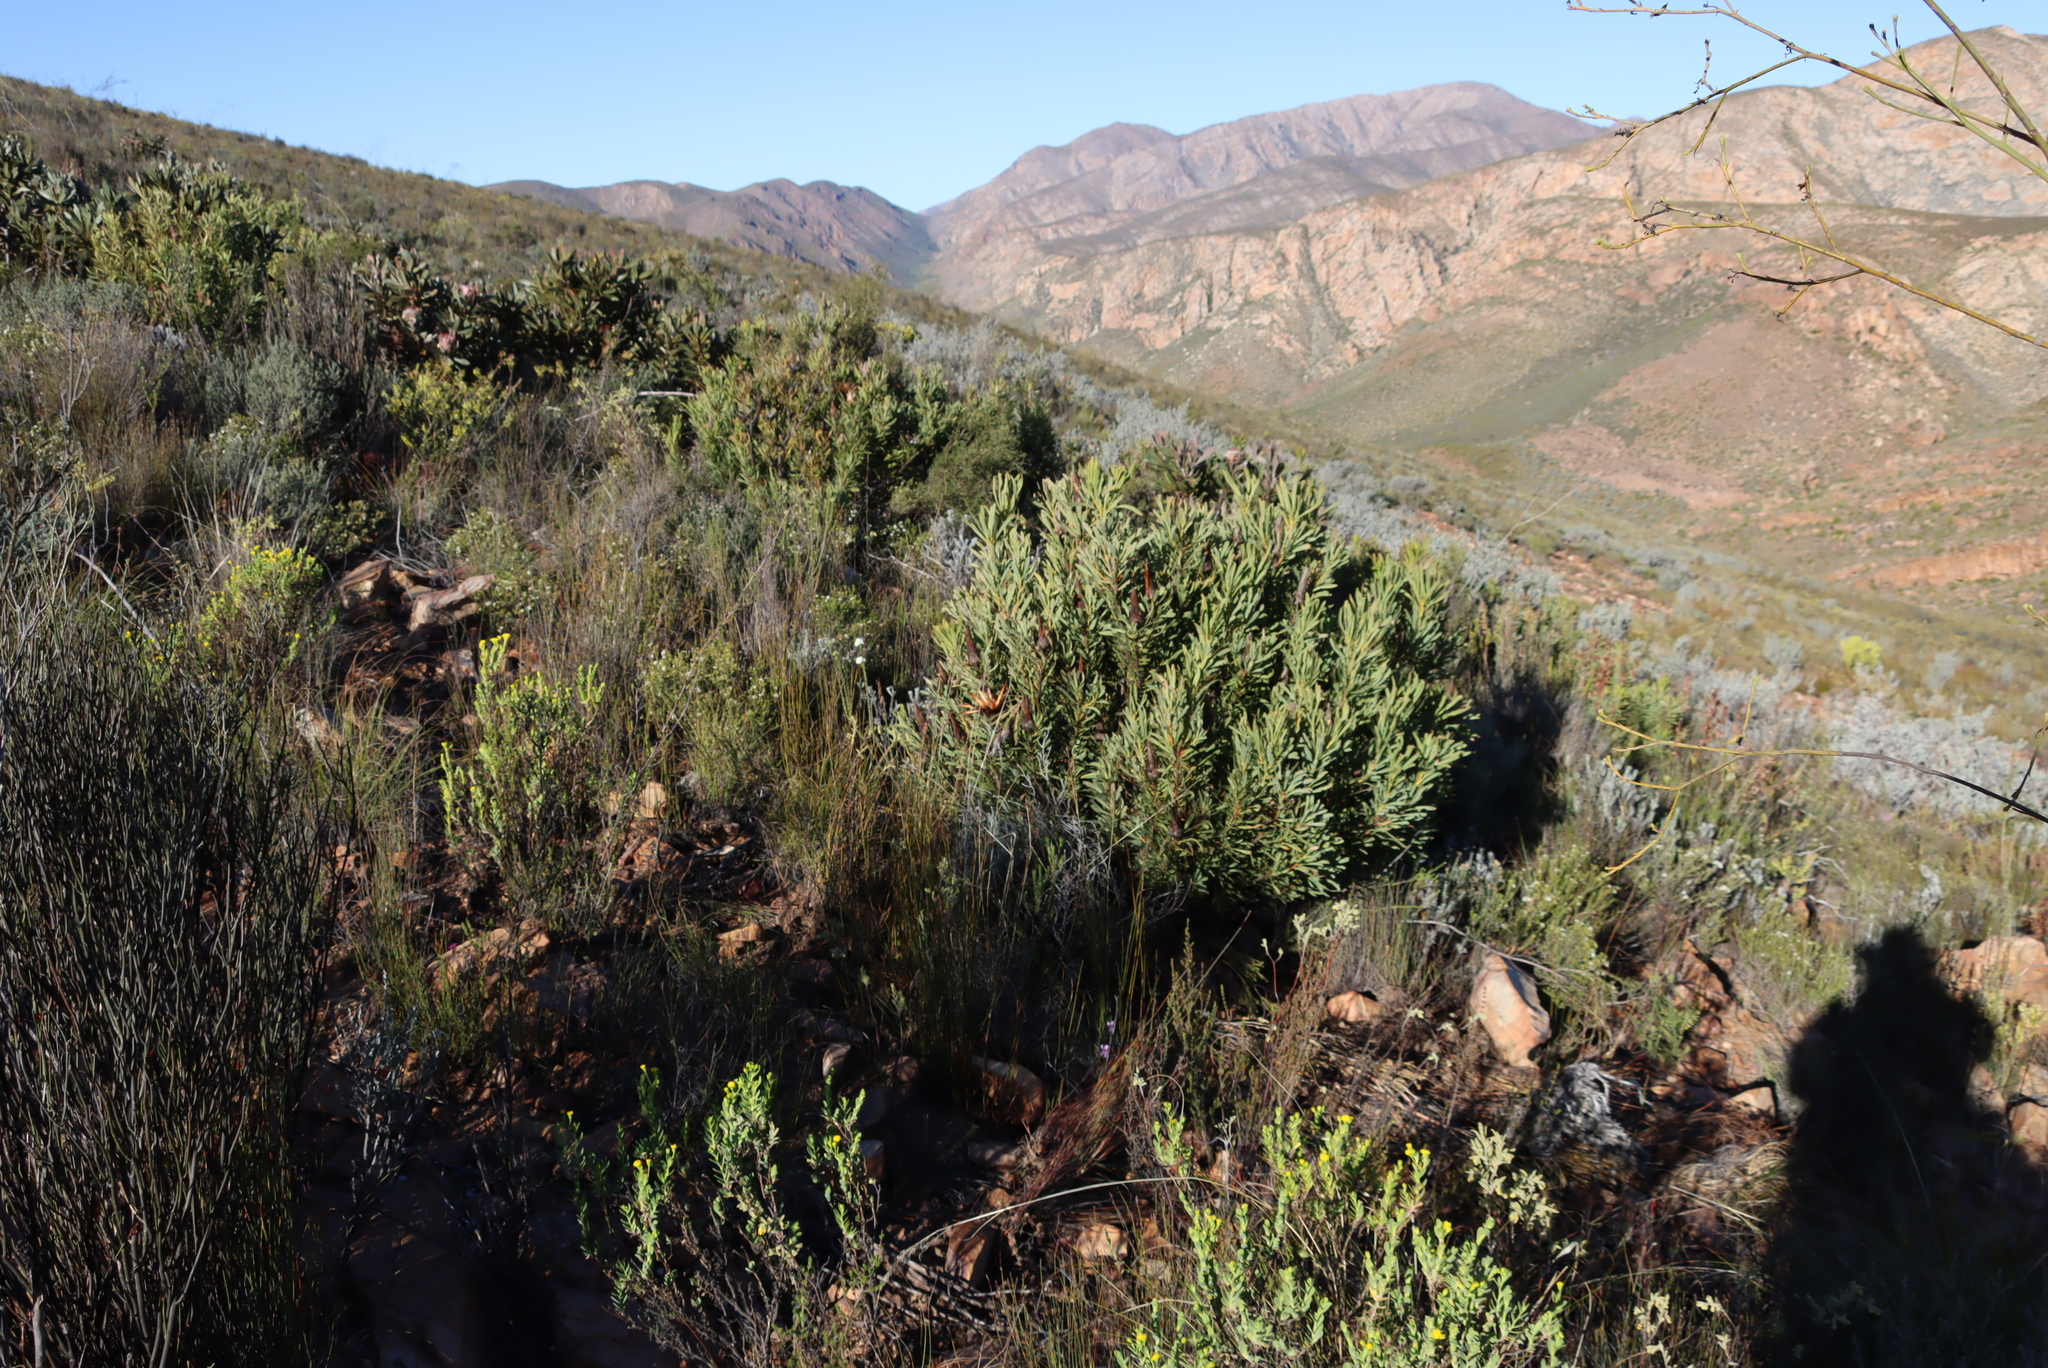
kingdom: Plantae
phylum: Tracheophyta
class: Magnoliopsida
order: Proteales
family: Proteaceae
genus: Protea
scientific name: Protea repens
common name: Sugarbush
